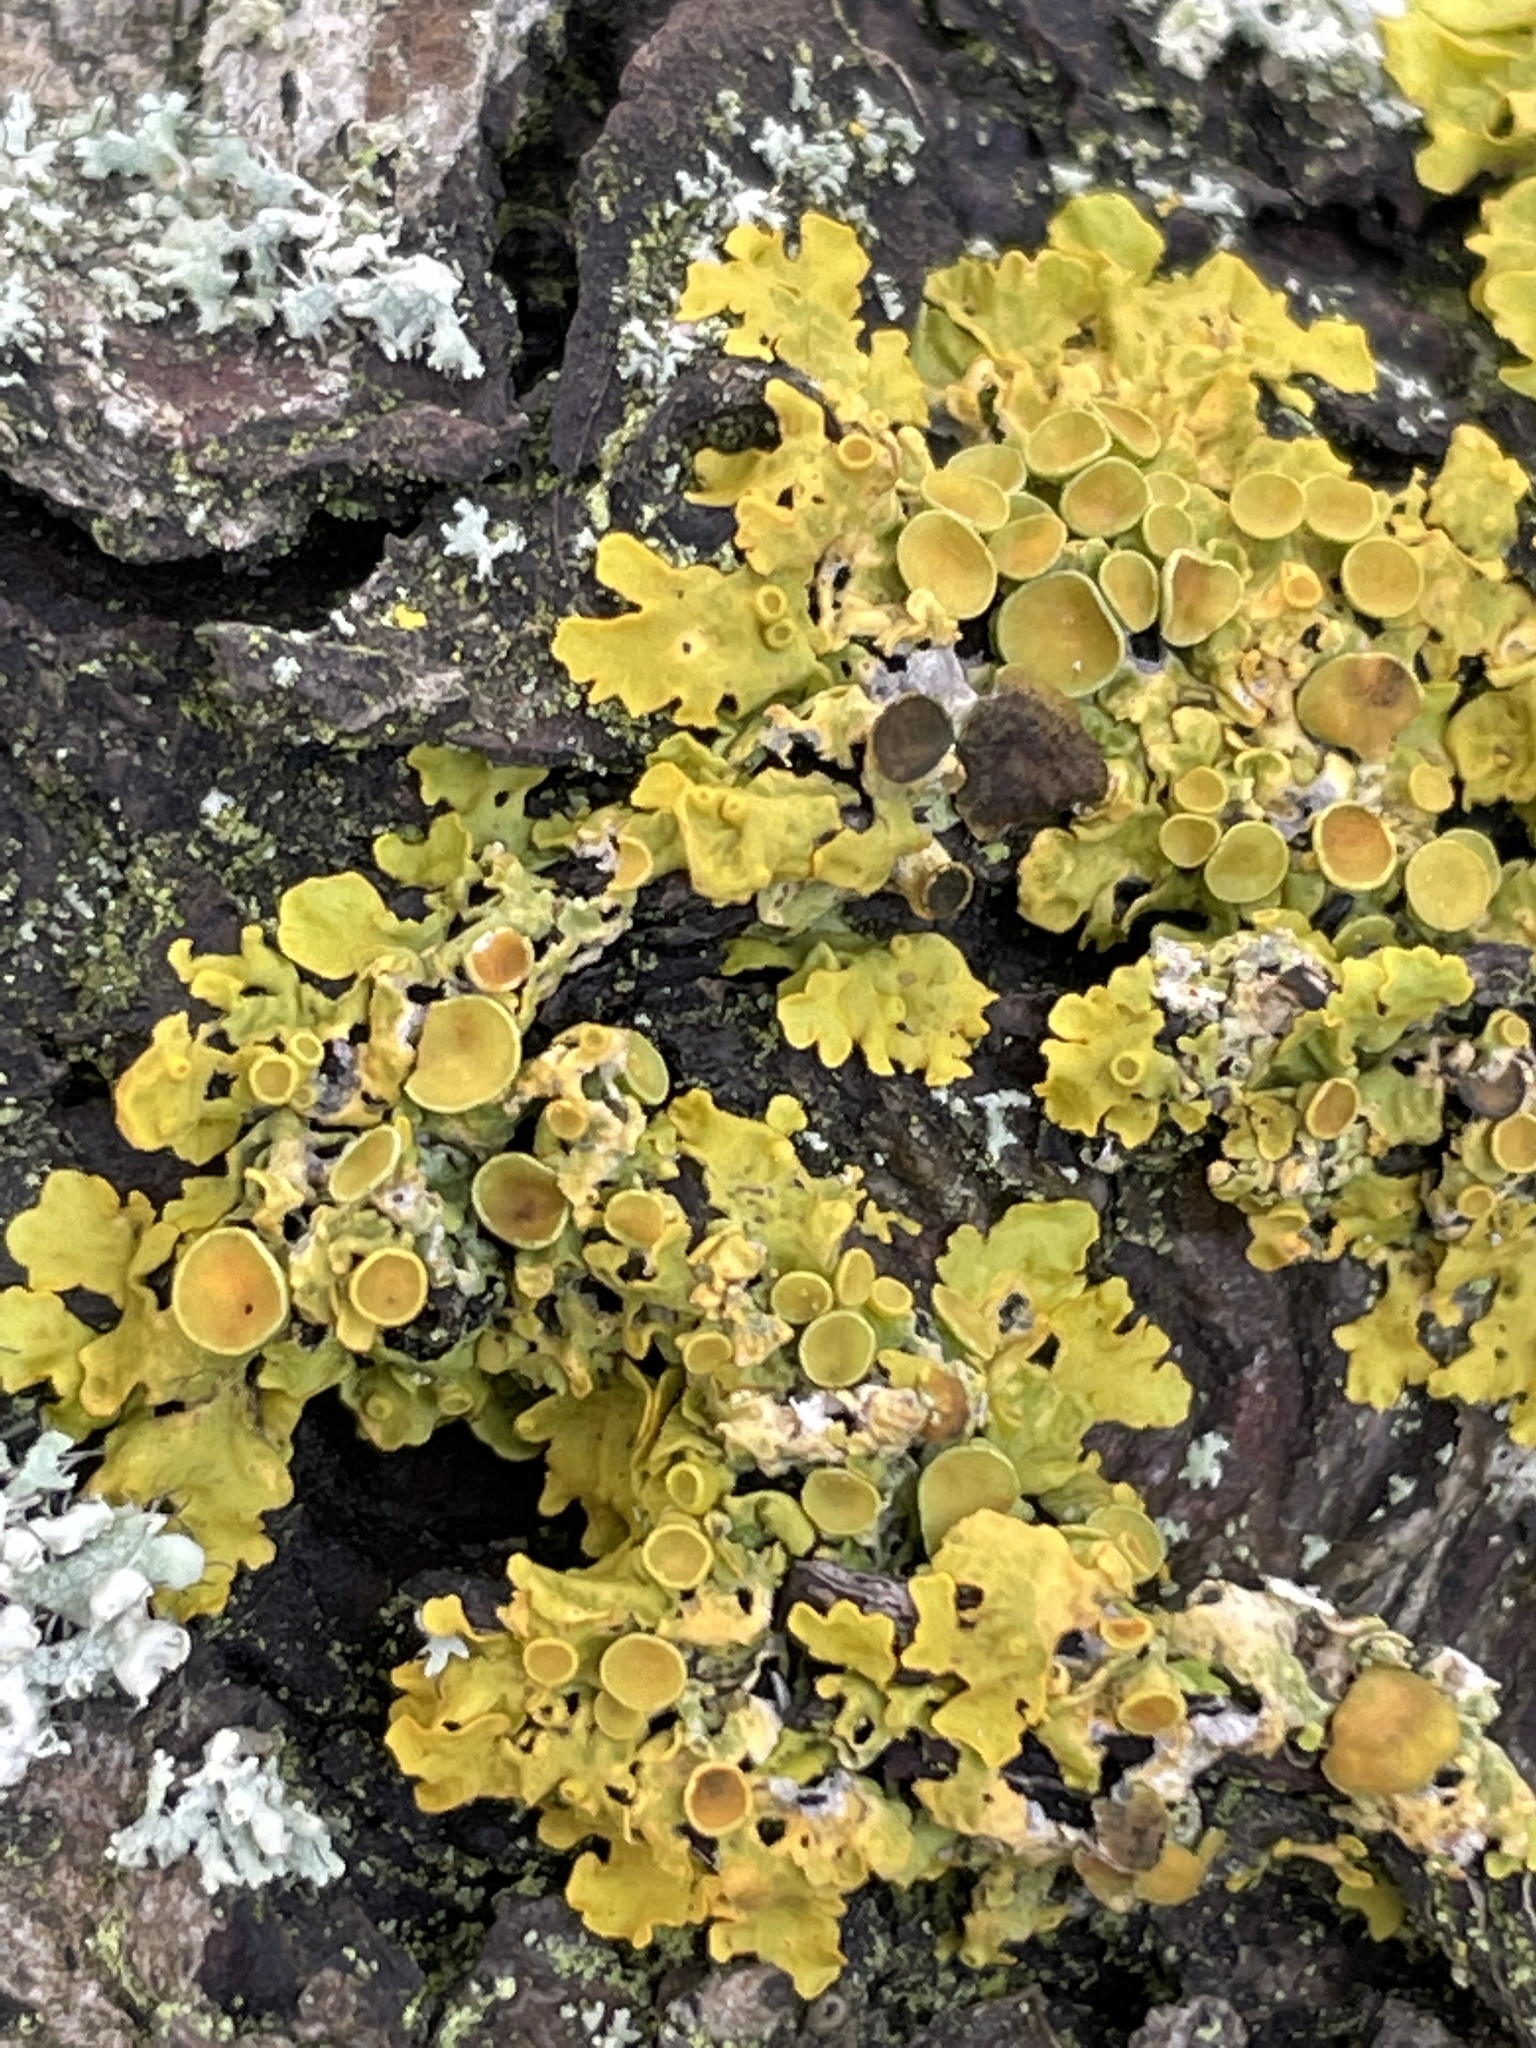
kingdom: Fungi
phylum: Ascomycota
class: Dothideomycetes
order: Mycosphaerellales
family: Teratosphaeriaceae
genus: Xanthoriicola
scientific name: Xanthoriicola physciae
